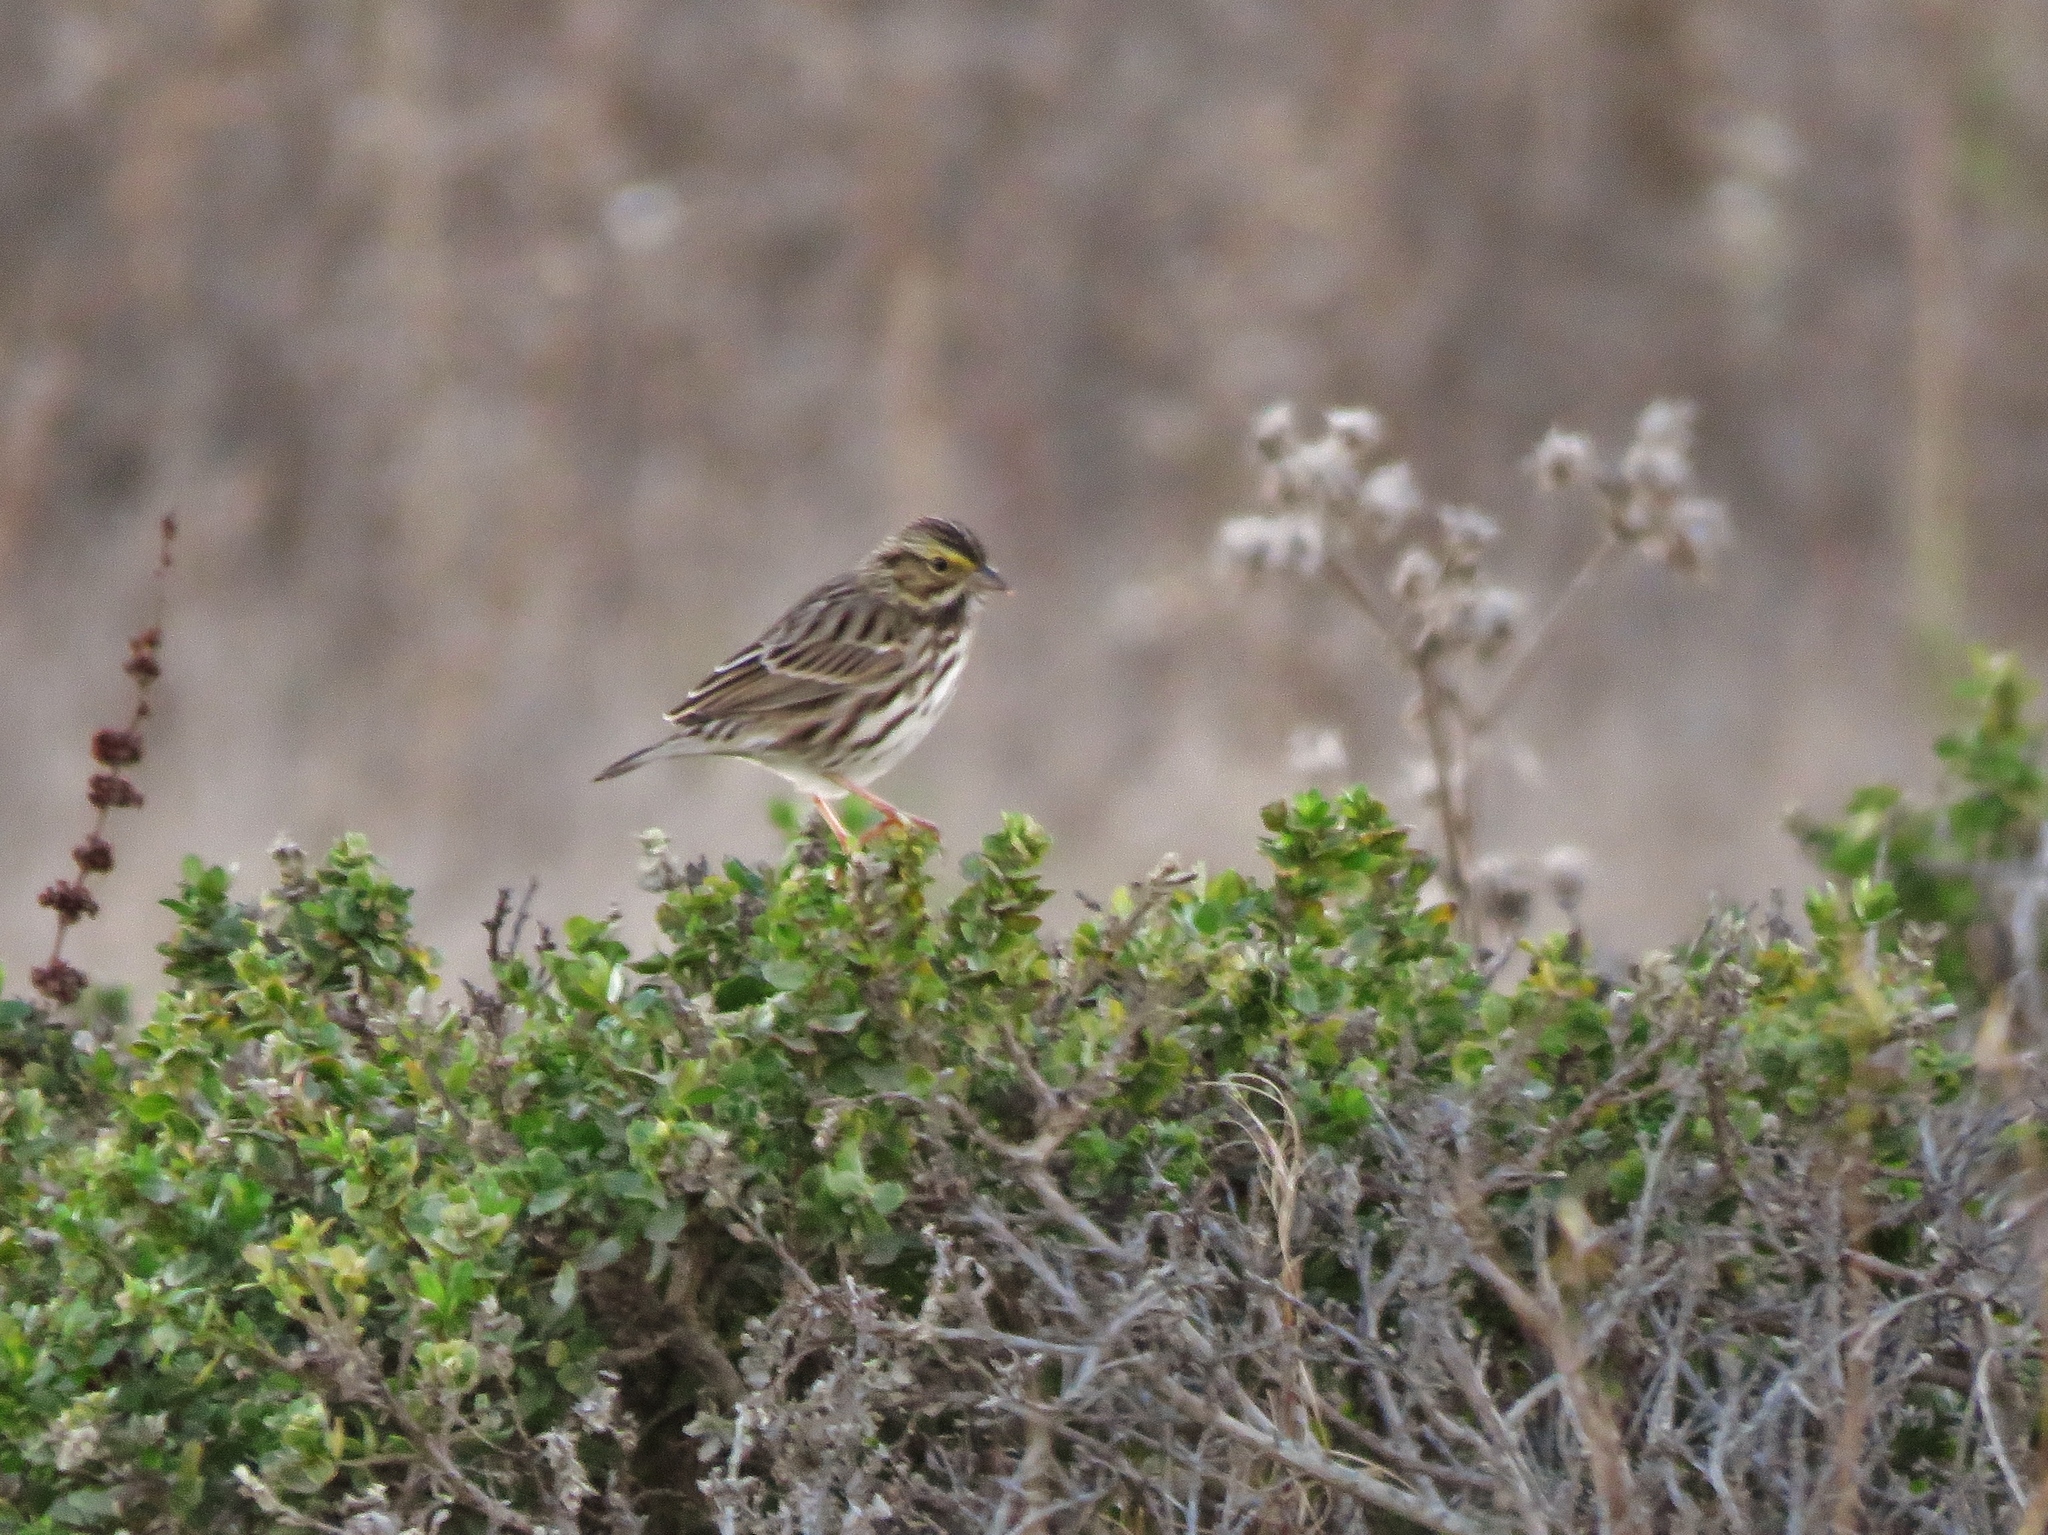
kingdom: Animalia
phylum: Chordata
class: Aves
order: Passeriformes
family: Passerellidae
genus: Passerculus
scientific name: Passerculus sandwichensis
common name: Savannah sparrow
